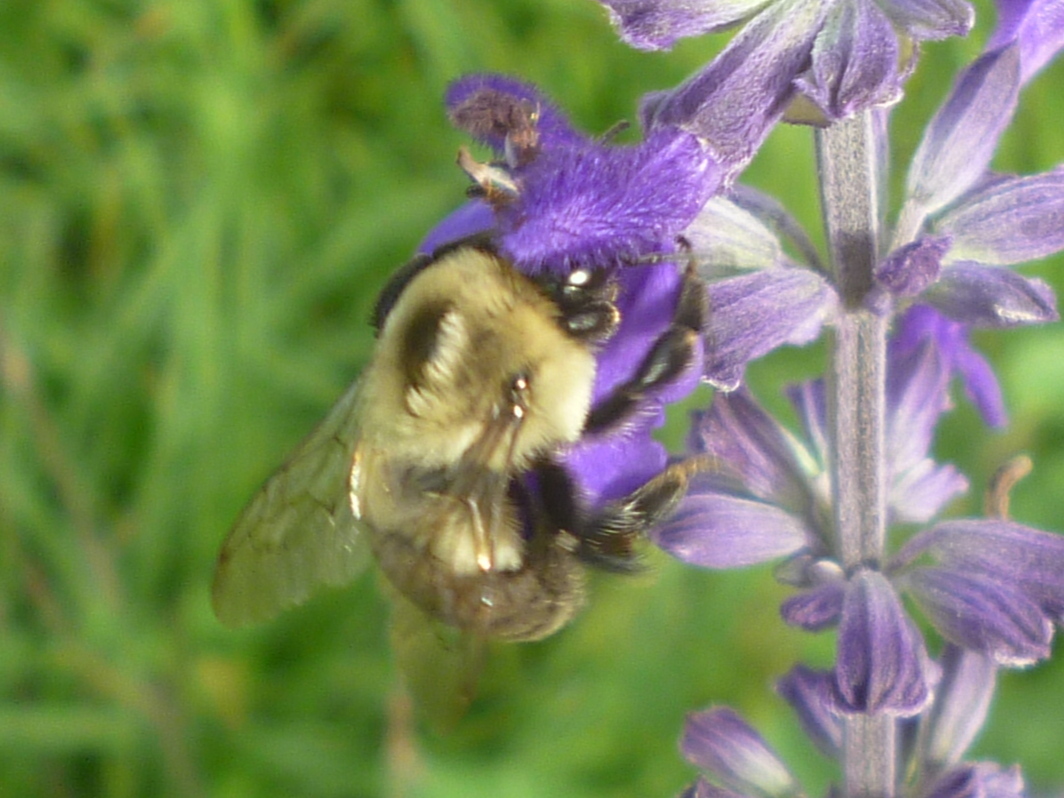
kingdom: Animalia
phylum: Arthropoda
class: Insecta
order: Hymenoptera
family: Apidae
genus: Bombus
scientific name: Bombus impatiens
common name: Common eastern bumble bee
